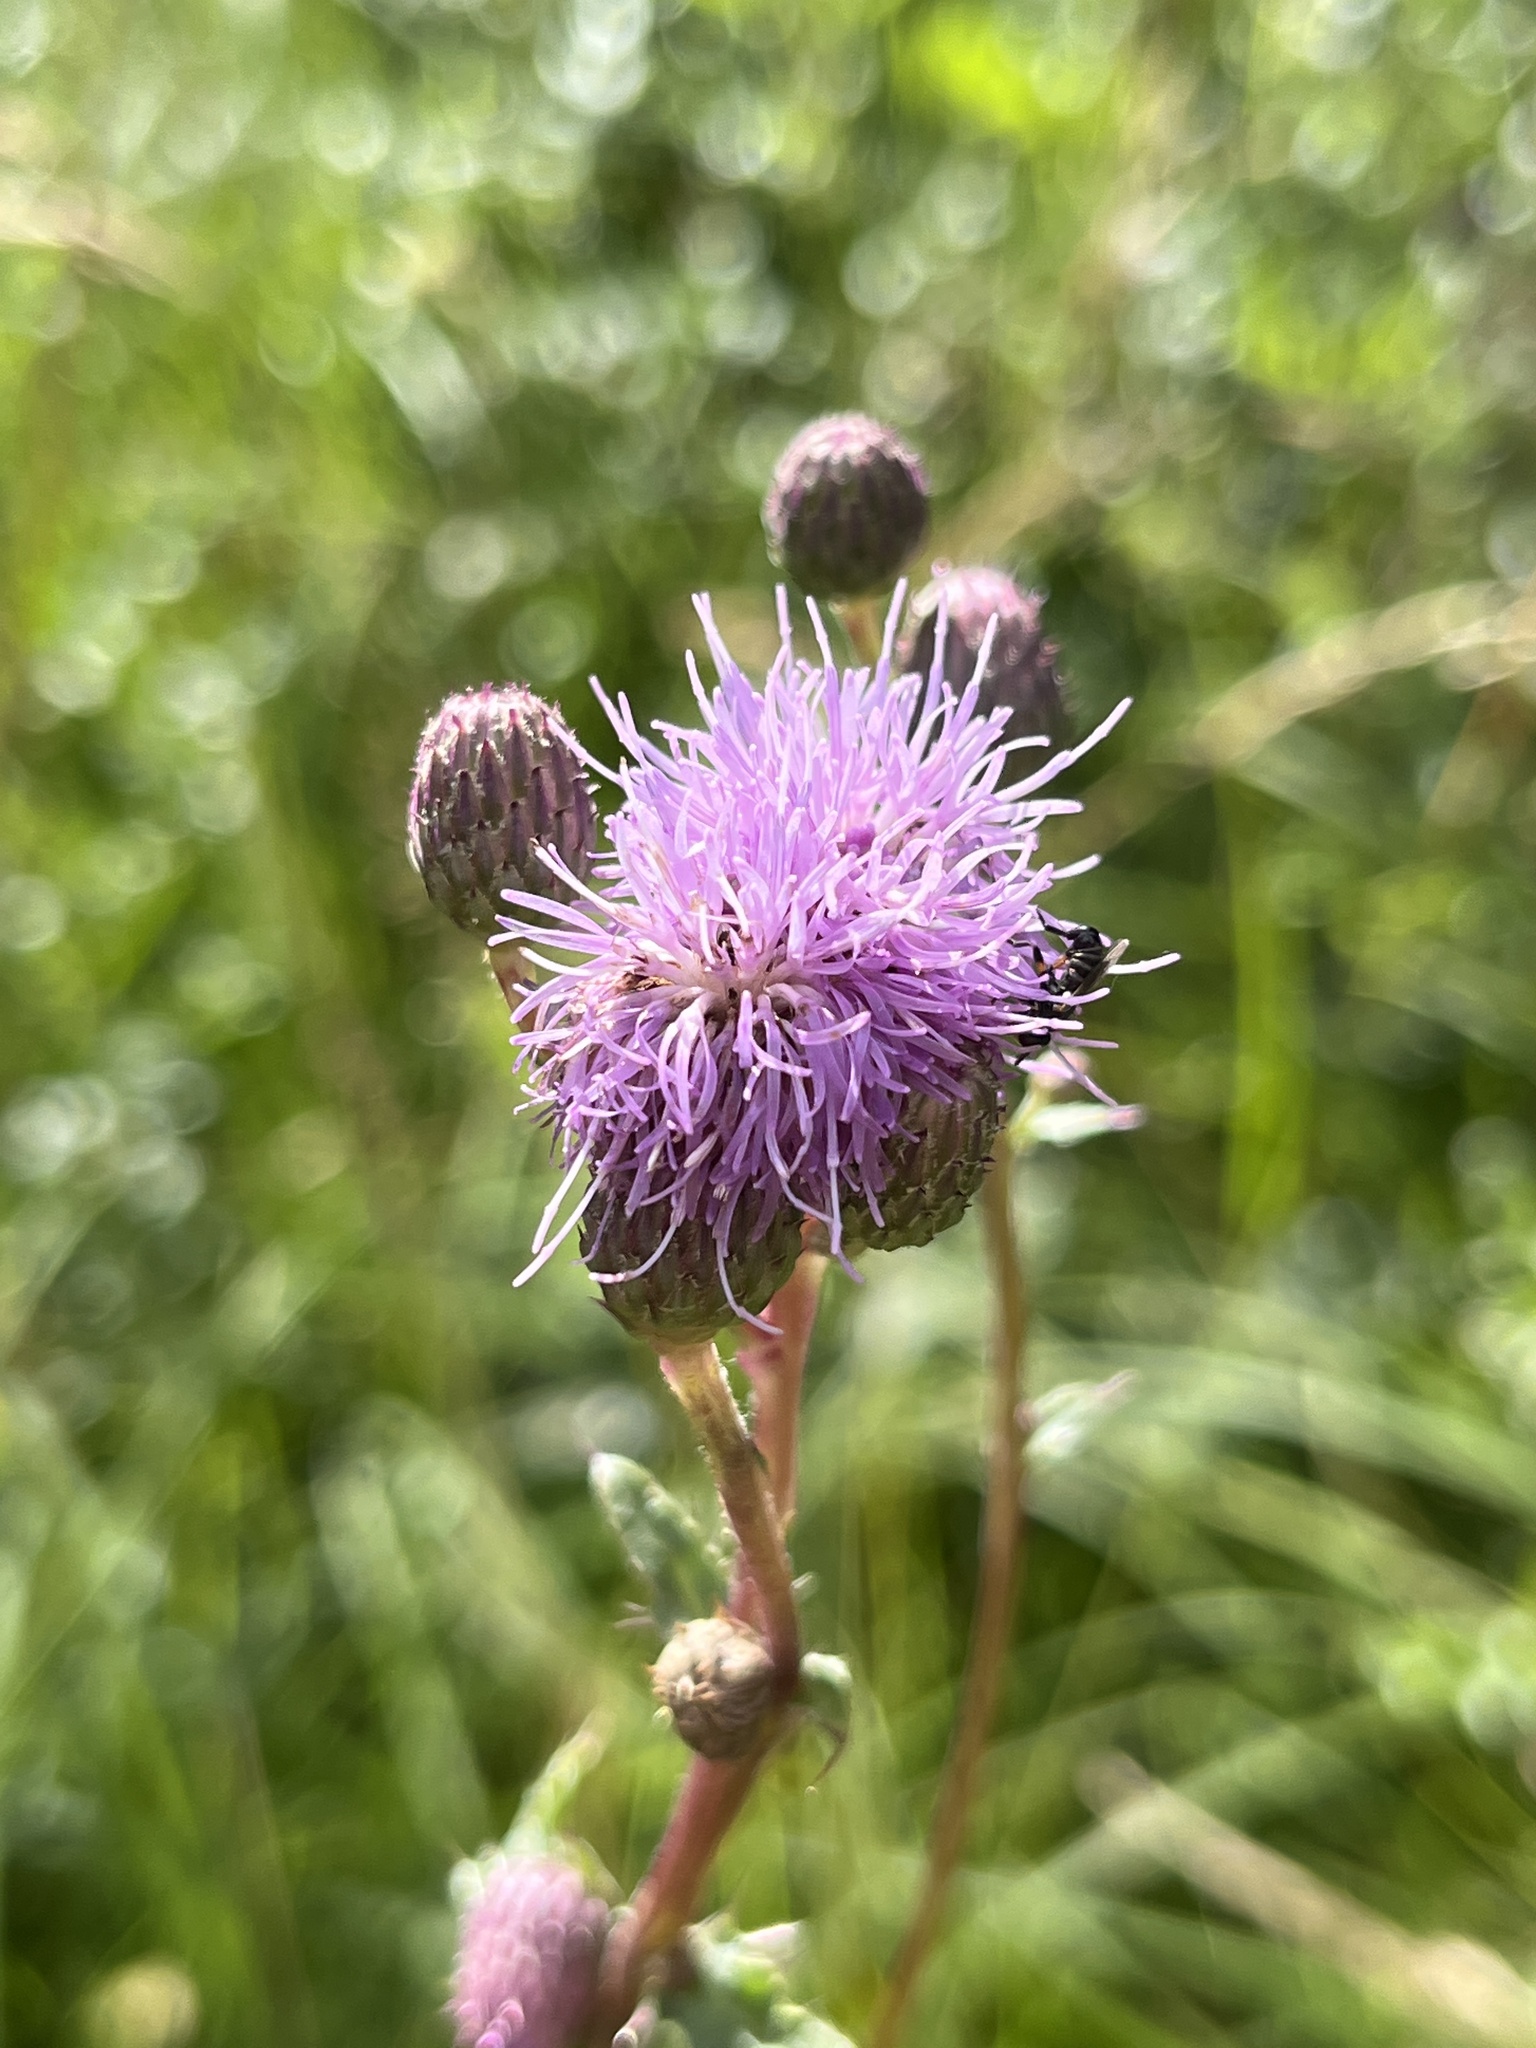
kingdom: Plantae
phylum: Tracheophyta
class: Magnoliopsida
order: Asterales
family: Asteraceae
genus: Cirsium
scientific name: Cirsium arvense
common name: Creeping thistle
